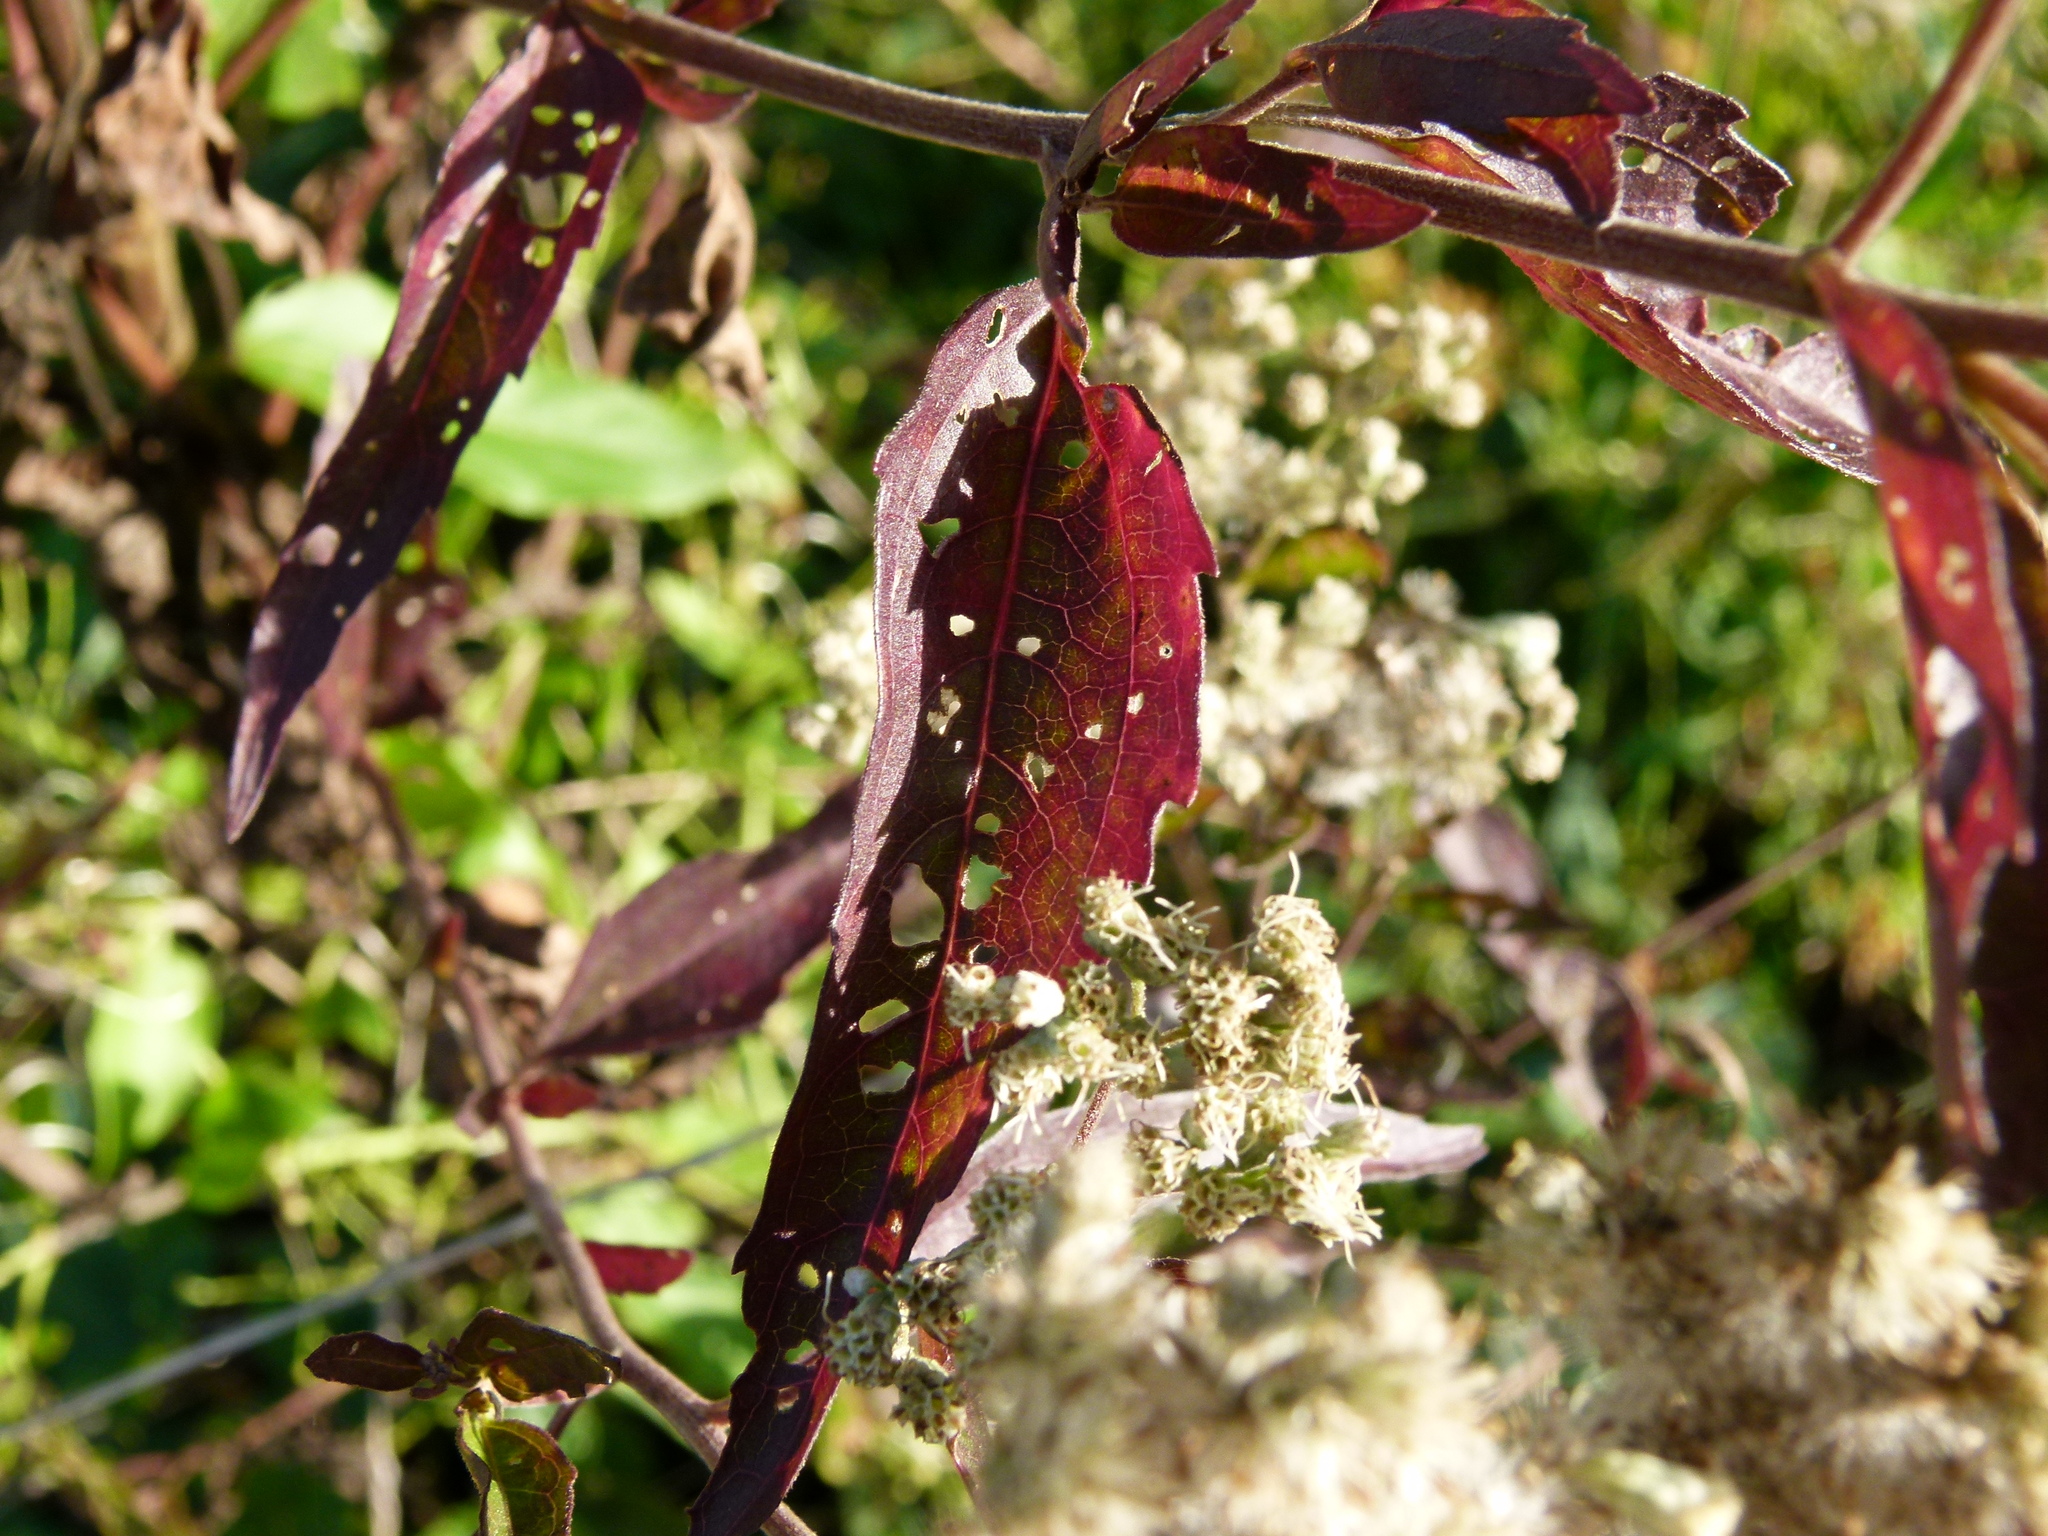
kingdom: Plantae
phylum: Tracheophyta
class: Magnoliopsida
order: Asterales
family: Asteraceae
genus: Eupatorium
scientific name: Eupatorium serotinum
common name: Late boneset
